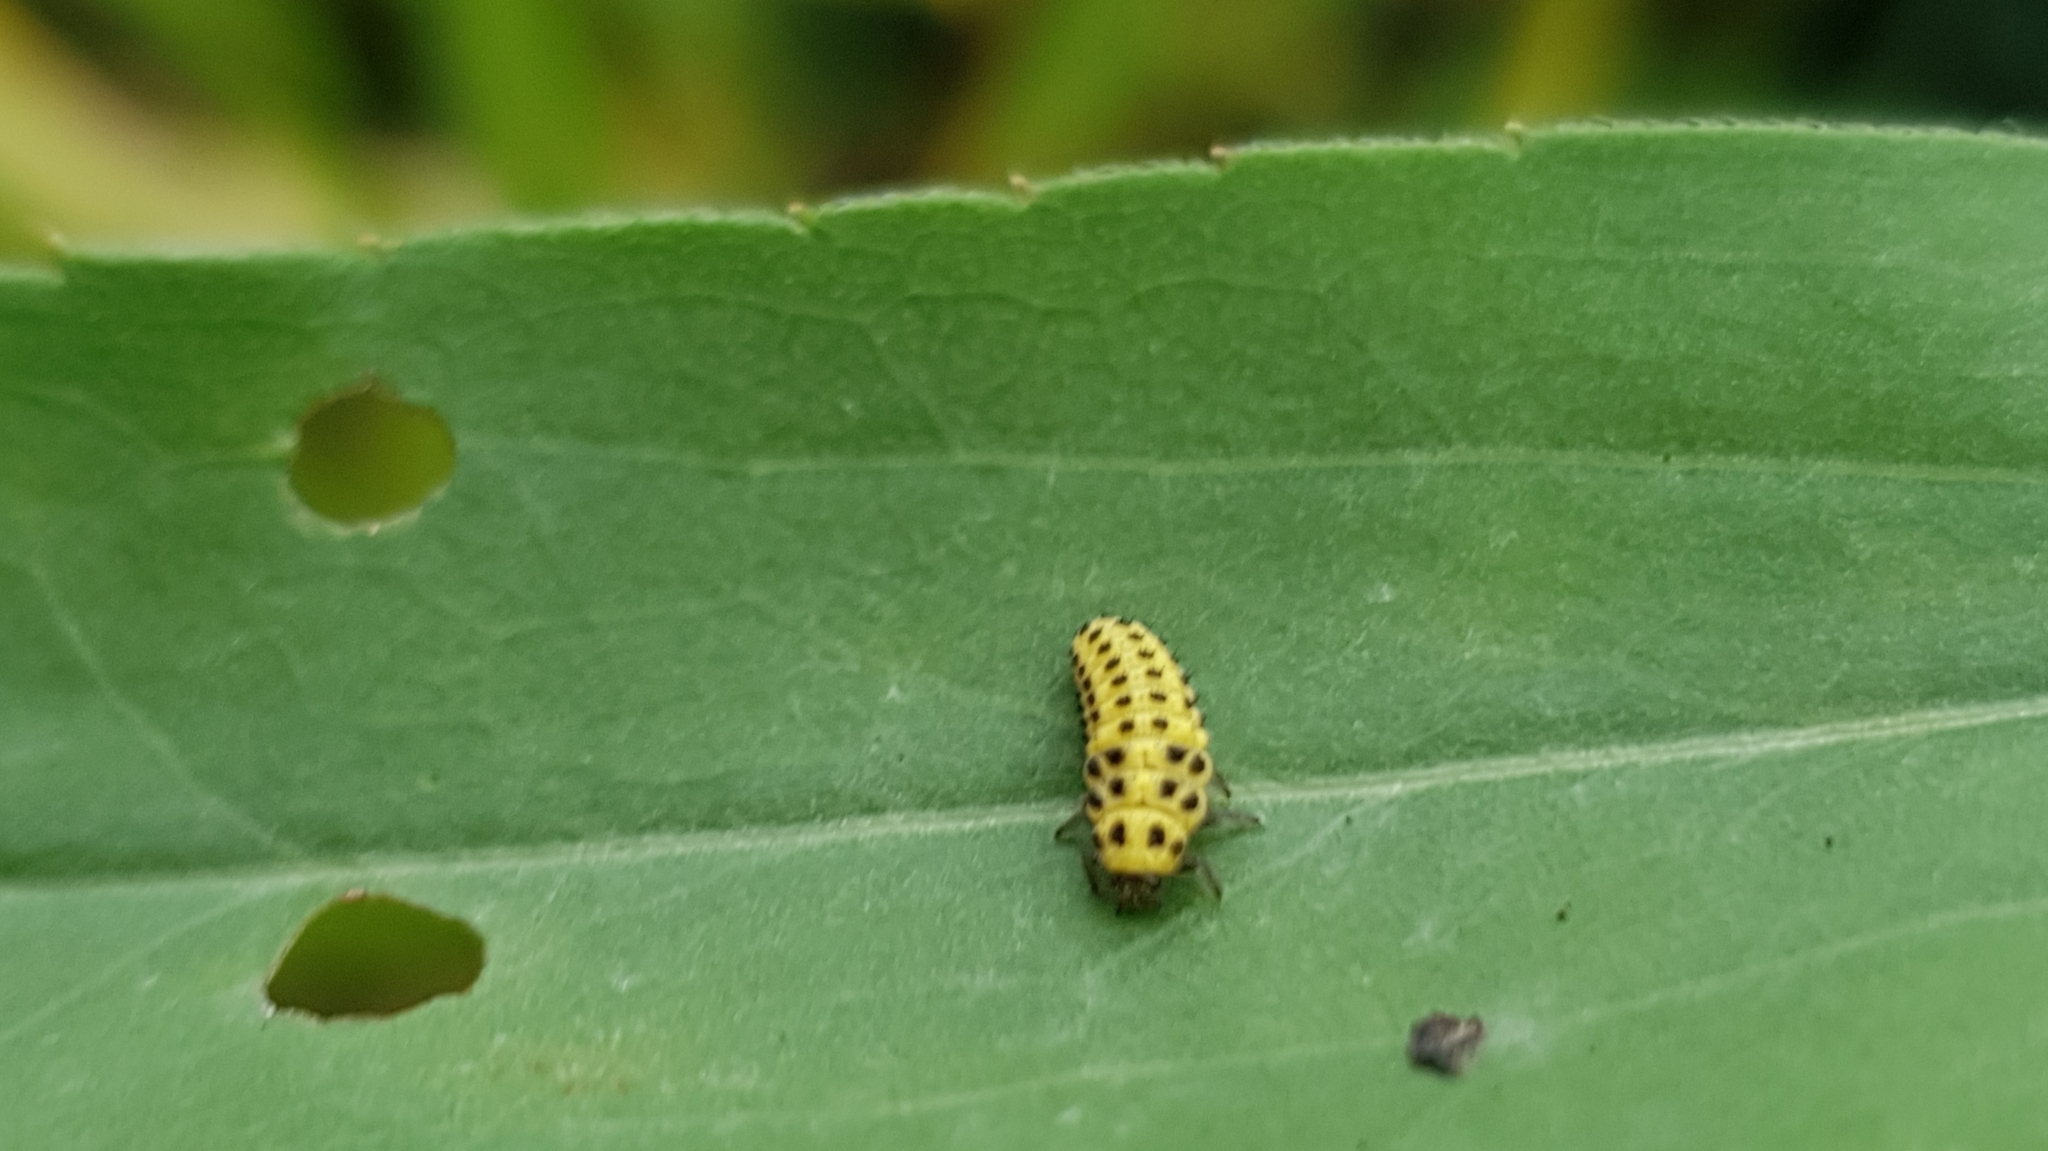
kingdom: Animalia
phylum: Arthropoda
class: Insecta
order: Coleoptera
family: Coccinellidae
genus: Psyllobora
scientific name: Psyllobora vigintiduopunctata
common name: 22-spot ladybird
